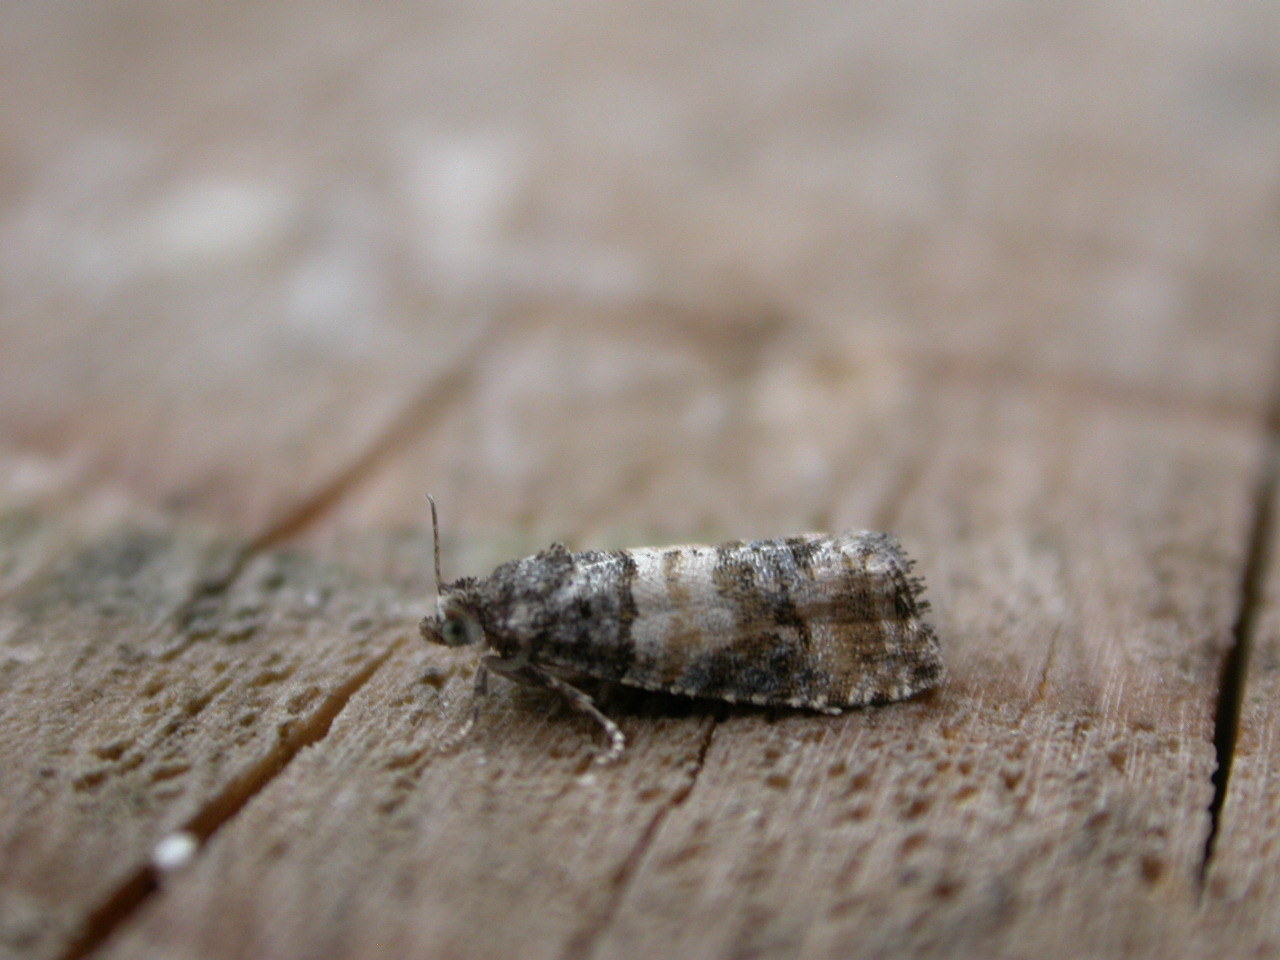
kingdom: Animalia
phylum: Arthropoda
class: Insecta
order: Lepidoptera
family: Tortricidae
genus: Piniphila
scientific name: Piniphila bifasciana
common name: Pine marble
